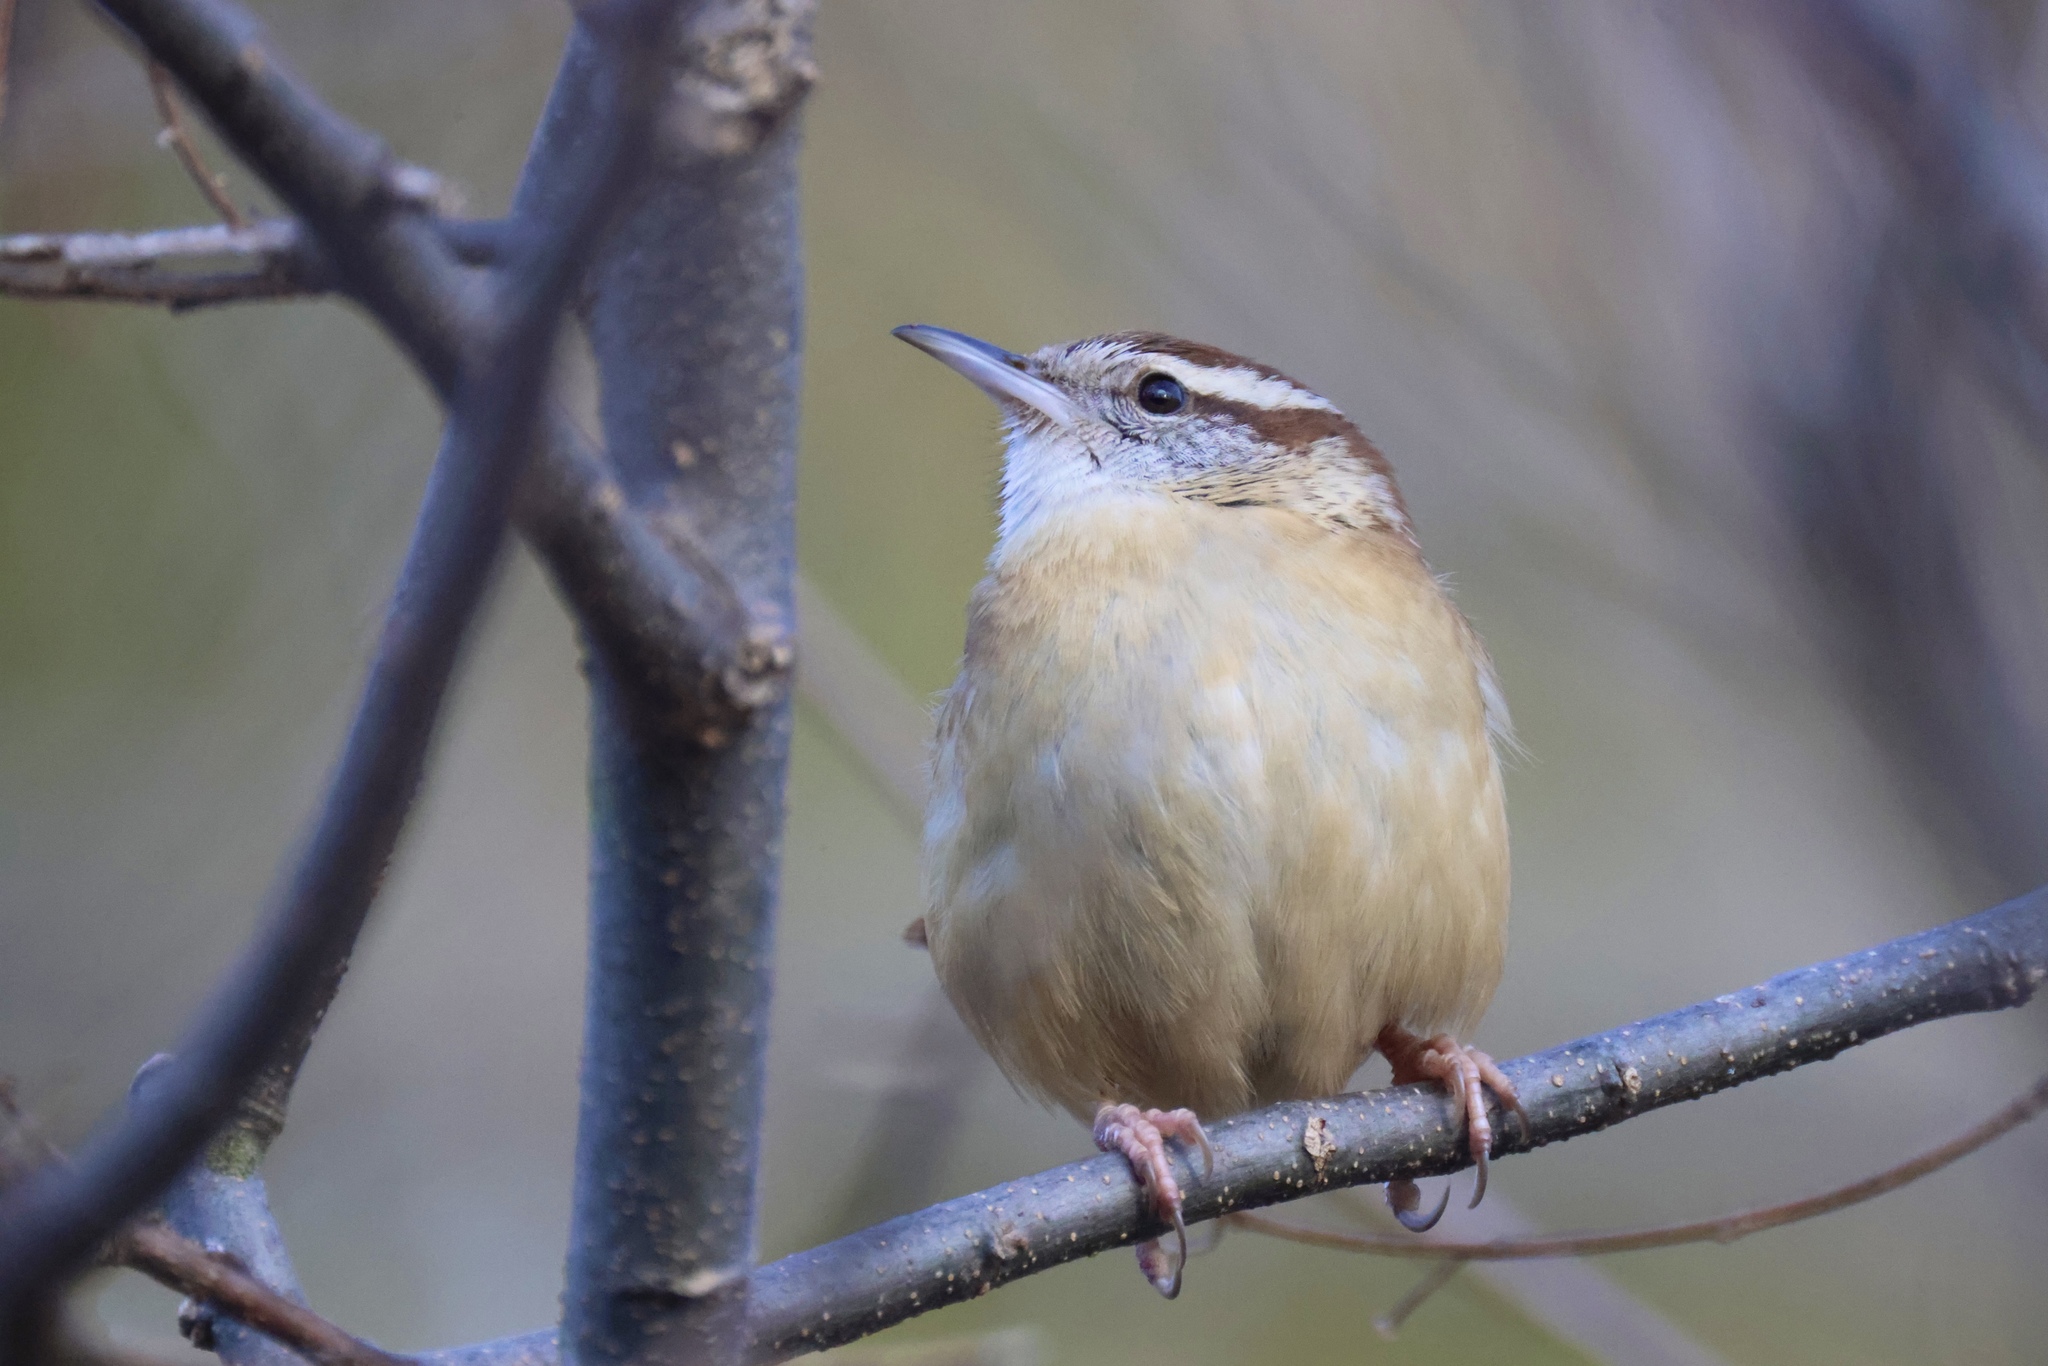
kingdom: Animalia
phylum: Chordata
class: Aves
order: Passeriformes
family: Troglodytidae
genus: Thryothorus
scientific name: Thryothorus ludovicianus
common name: Carolina wren
